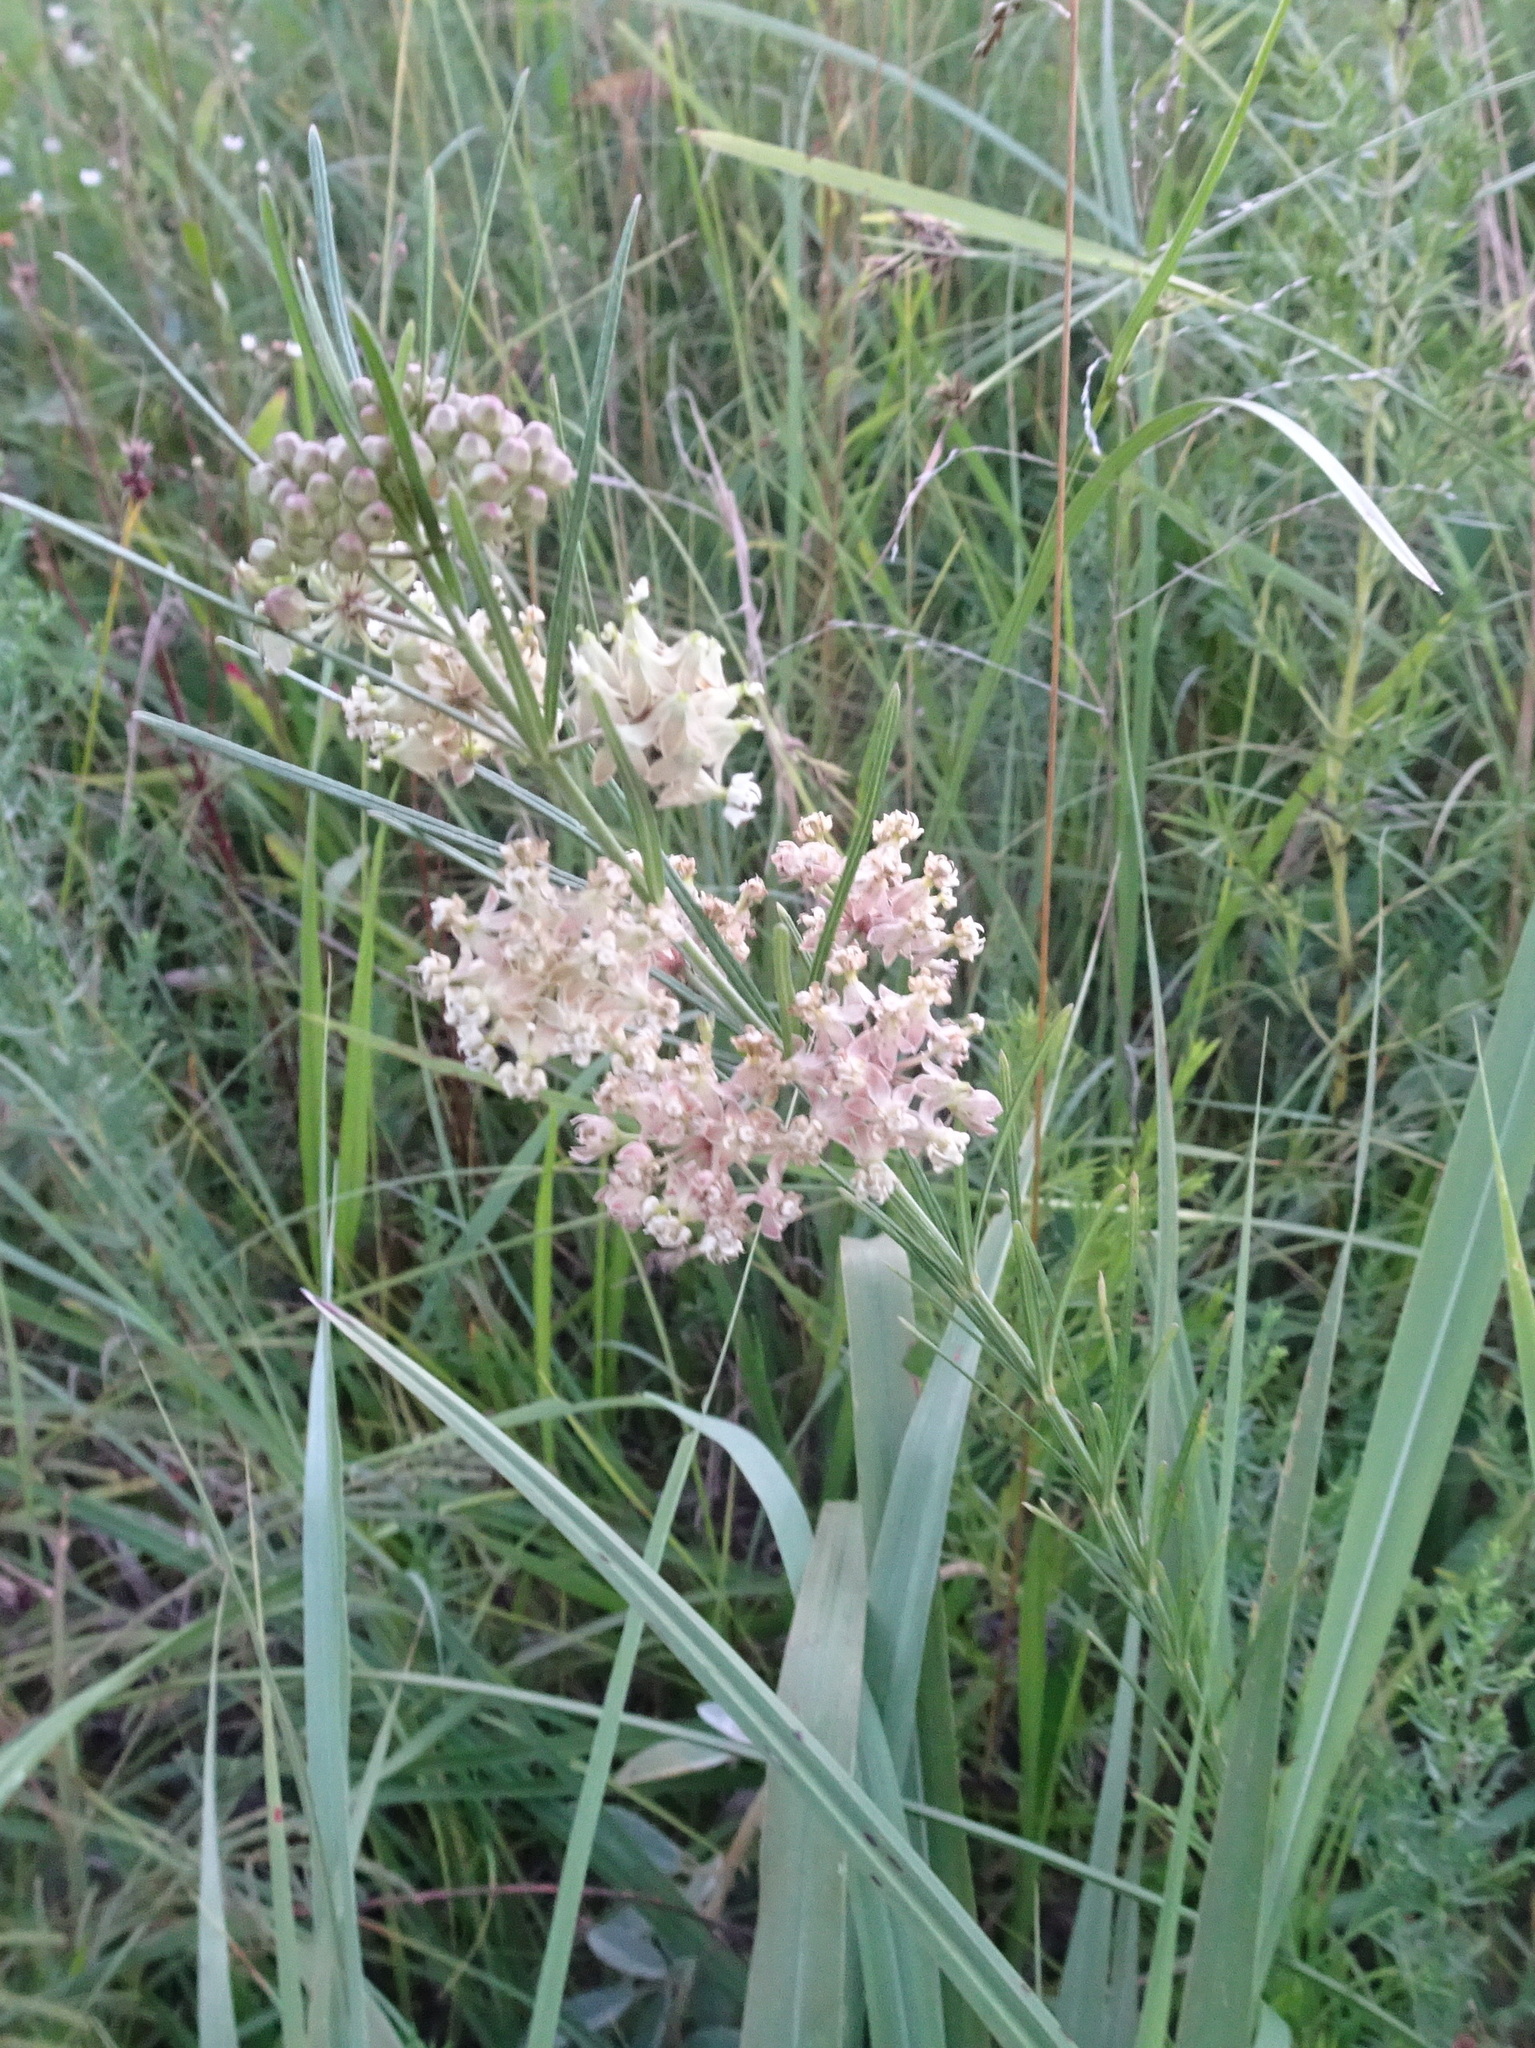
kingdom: Plantae
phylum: Tracheophyta
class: Magnoliopsida
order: Gentianales
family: Apocynaceae
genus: Asclepias
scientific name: Asclepias verticillata
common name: Eastern whorled milkweed
